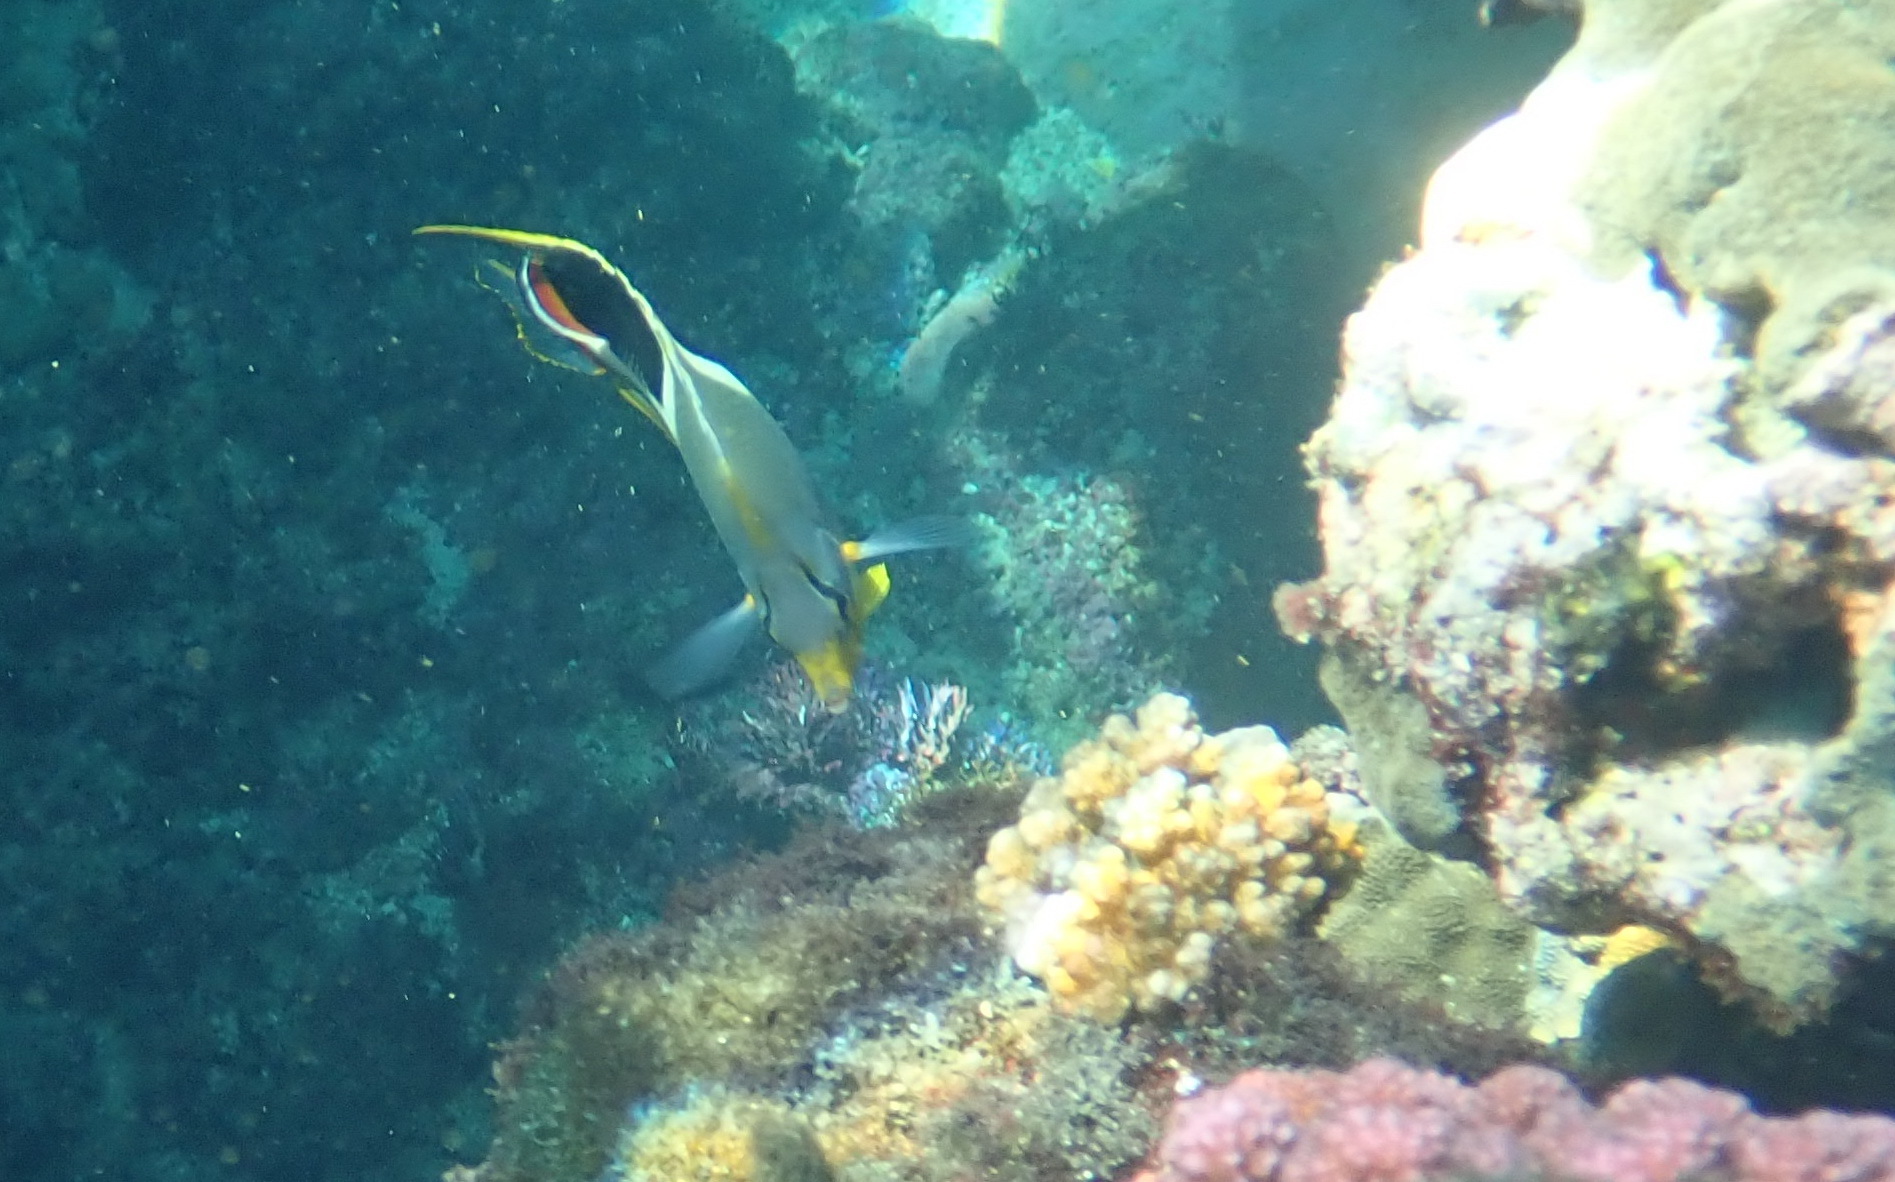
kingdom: Animalia
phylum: Chordata
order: Perciformes
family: Chaetodontidae
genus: Chaetodon
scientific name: Chaetodon ephippium
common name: Saddled butterflyfish
